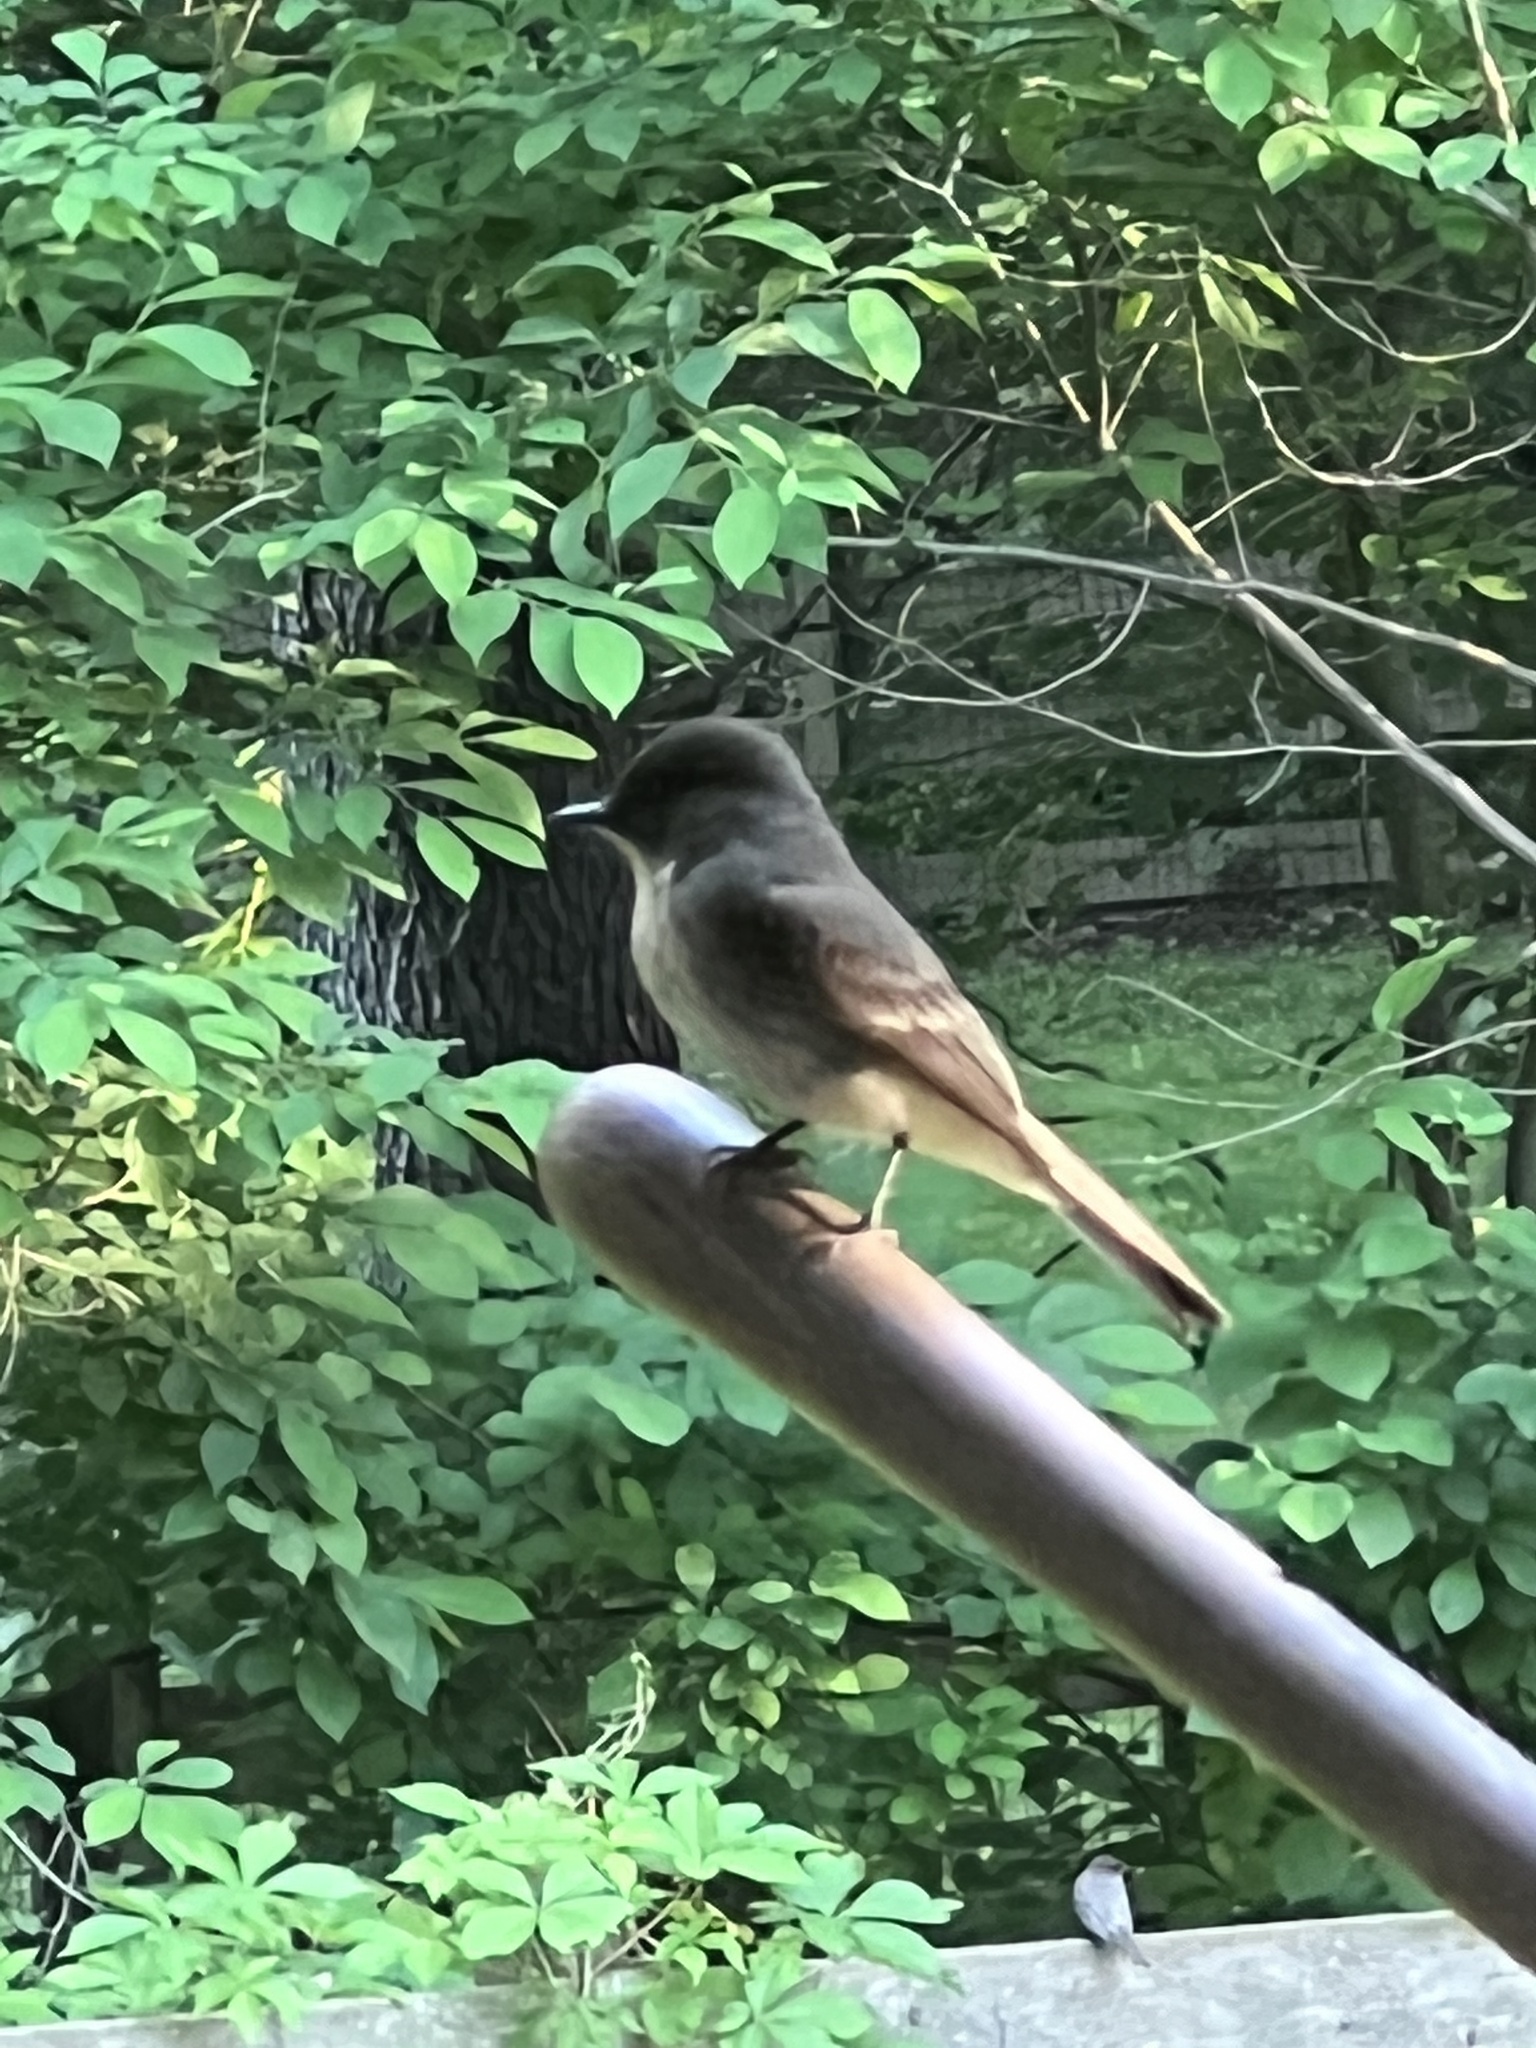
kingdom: Animalia
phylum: Chordata
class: Aves
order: Passeriformes
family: Tyrannidae
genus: Sayornis
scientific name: Sayornis phoebe
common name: Eastern phoebe
